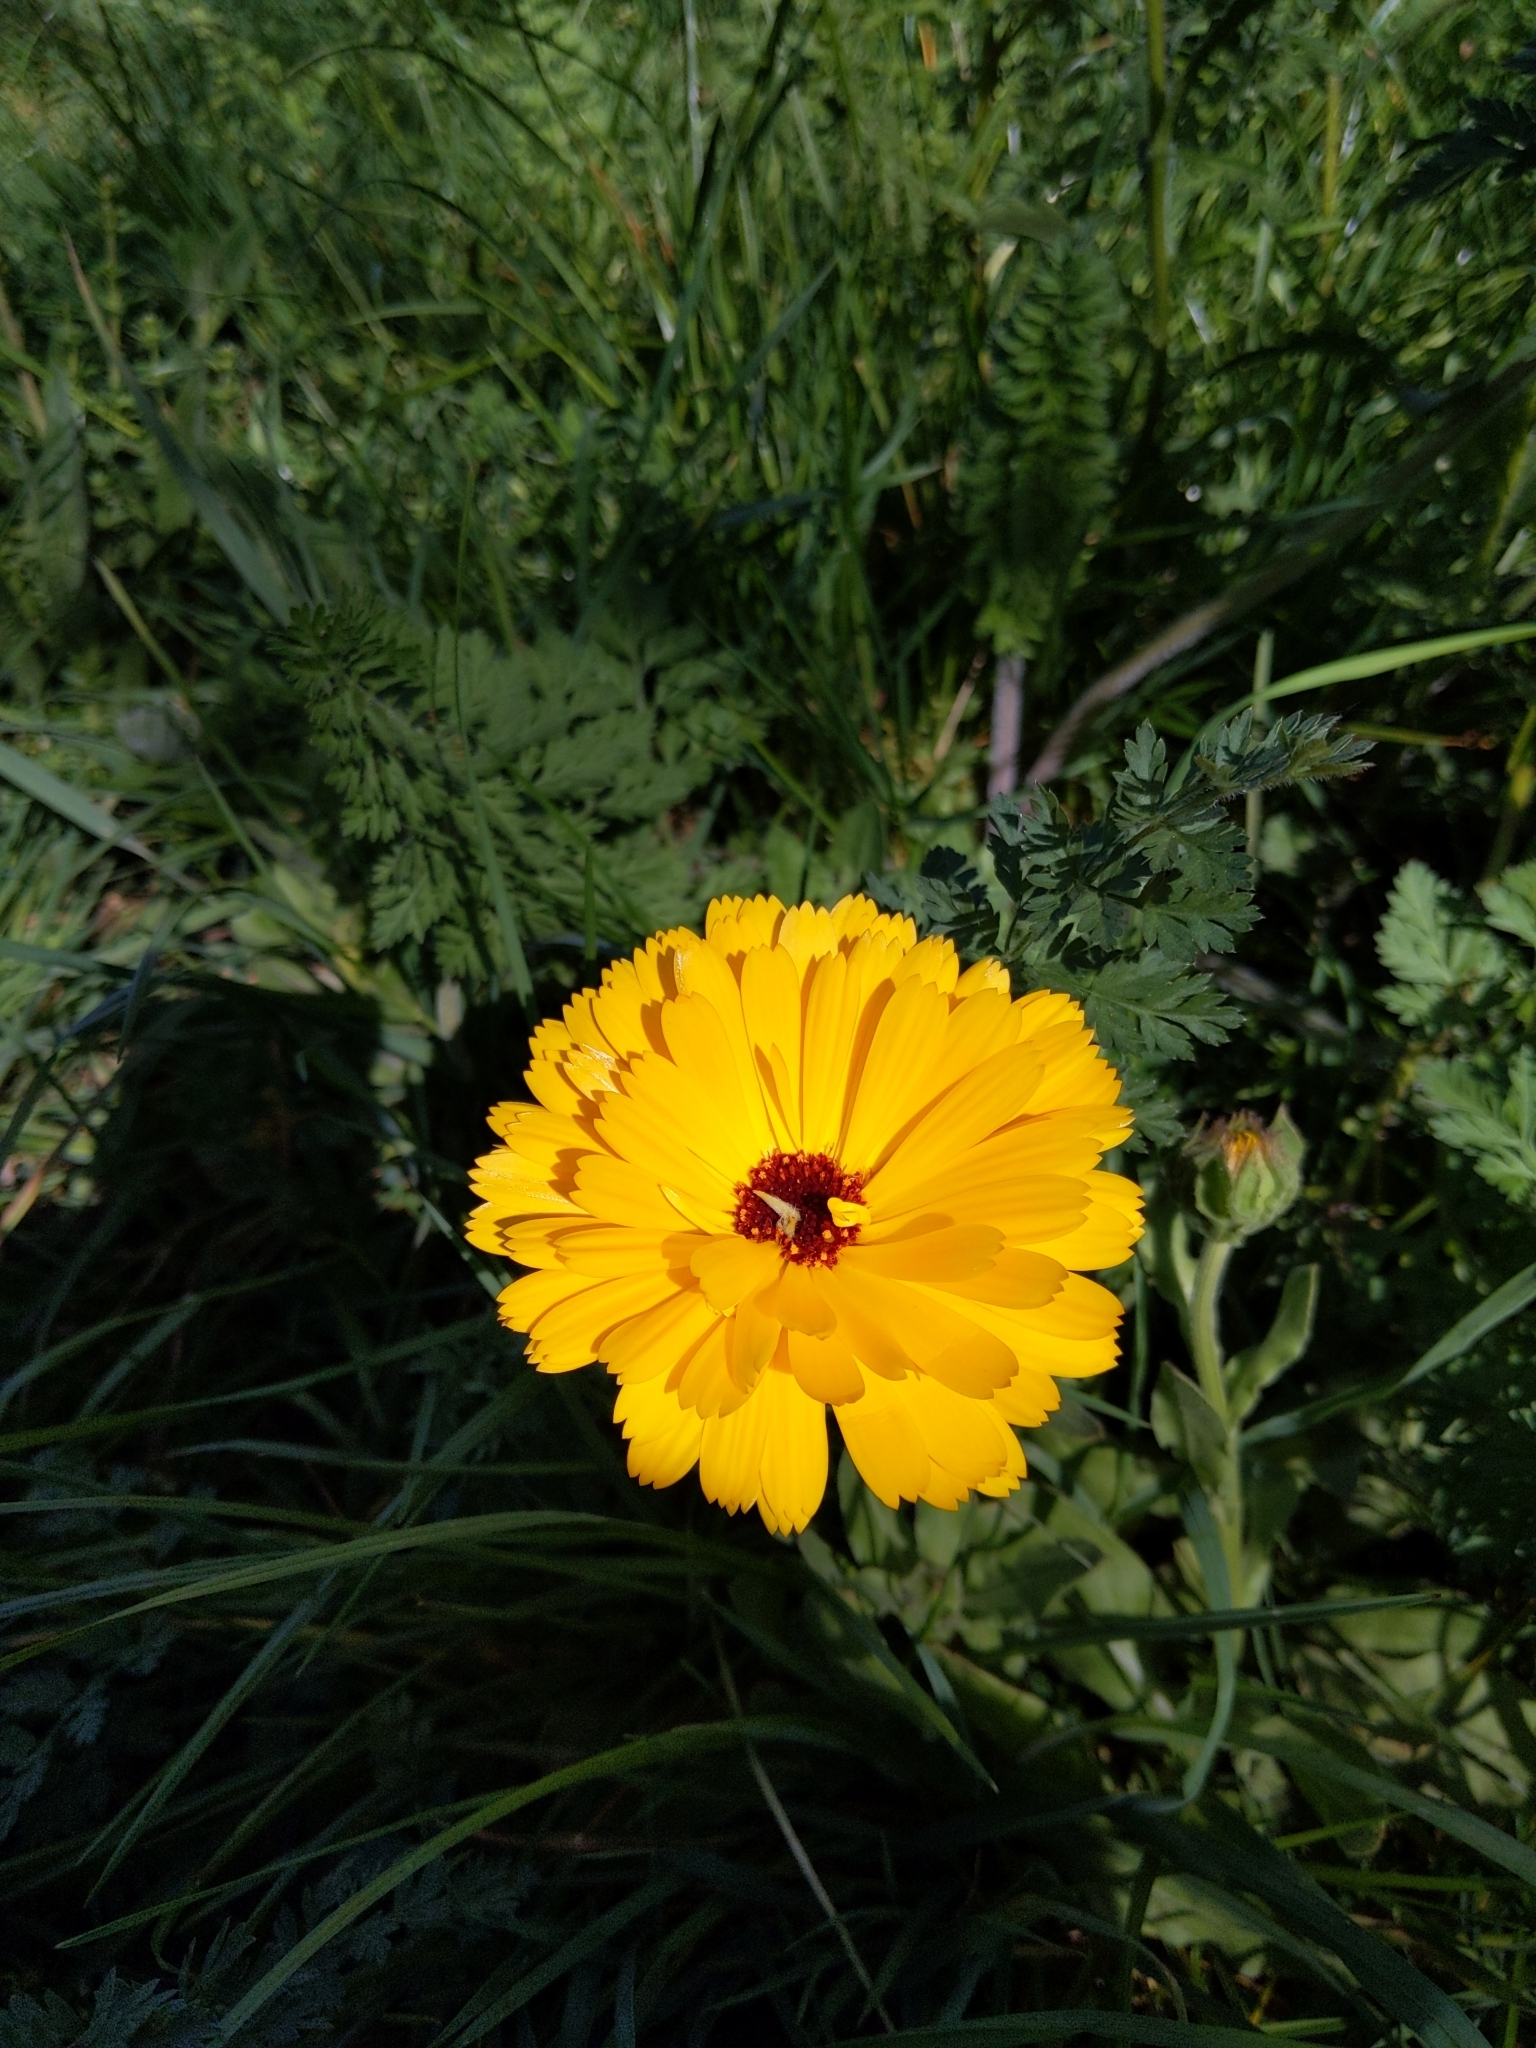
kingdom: Plantae
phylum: Tracheophyta
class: Magnoliopsida
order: Asterales
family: Asteraceae
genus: Calendula
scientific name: Calendula officinalis
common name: Pot marigold
